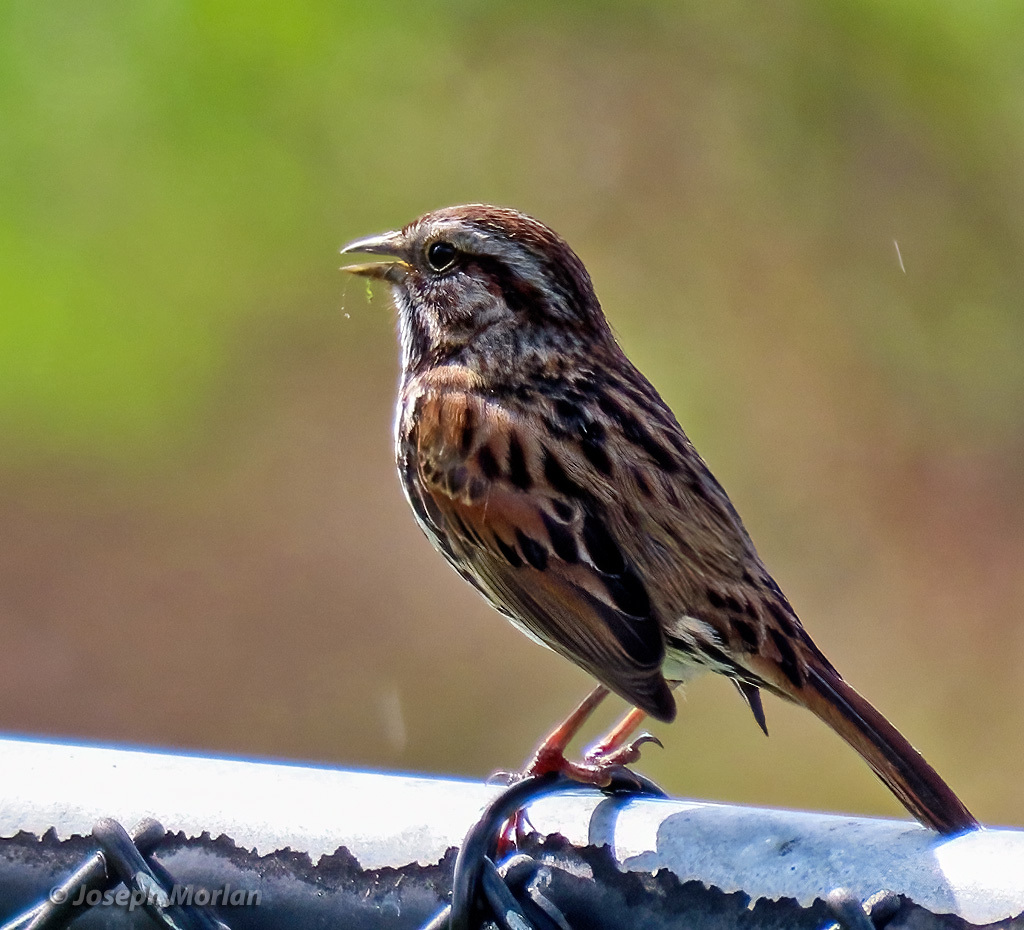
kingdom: Animalia
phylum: Chordata
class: Aves
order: Passeriformes
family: Passerellidae
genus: Melospiza
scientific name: Melospiza melodia
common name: Song sparrow
